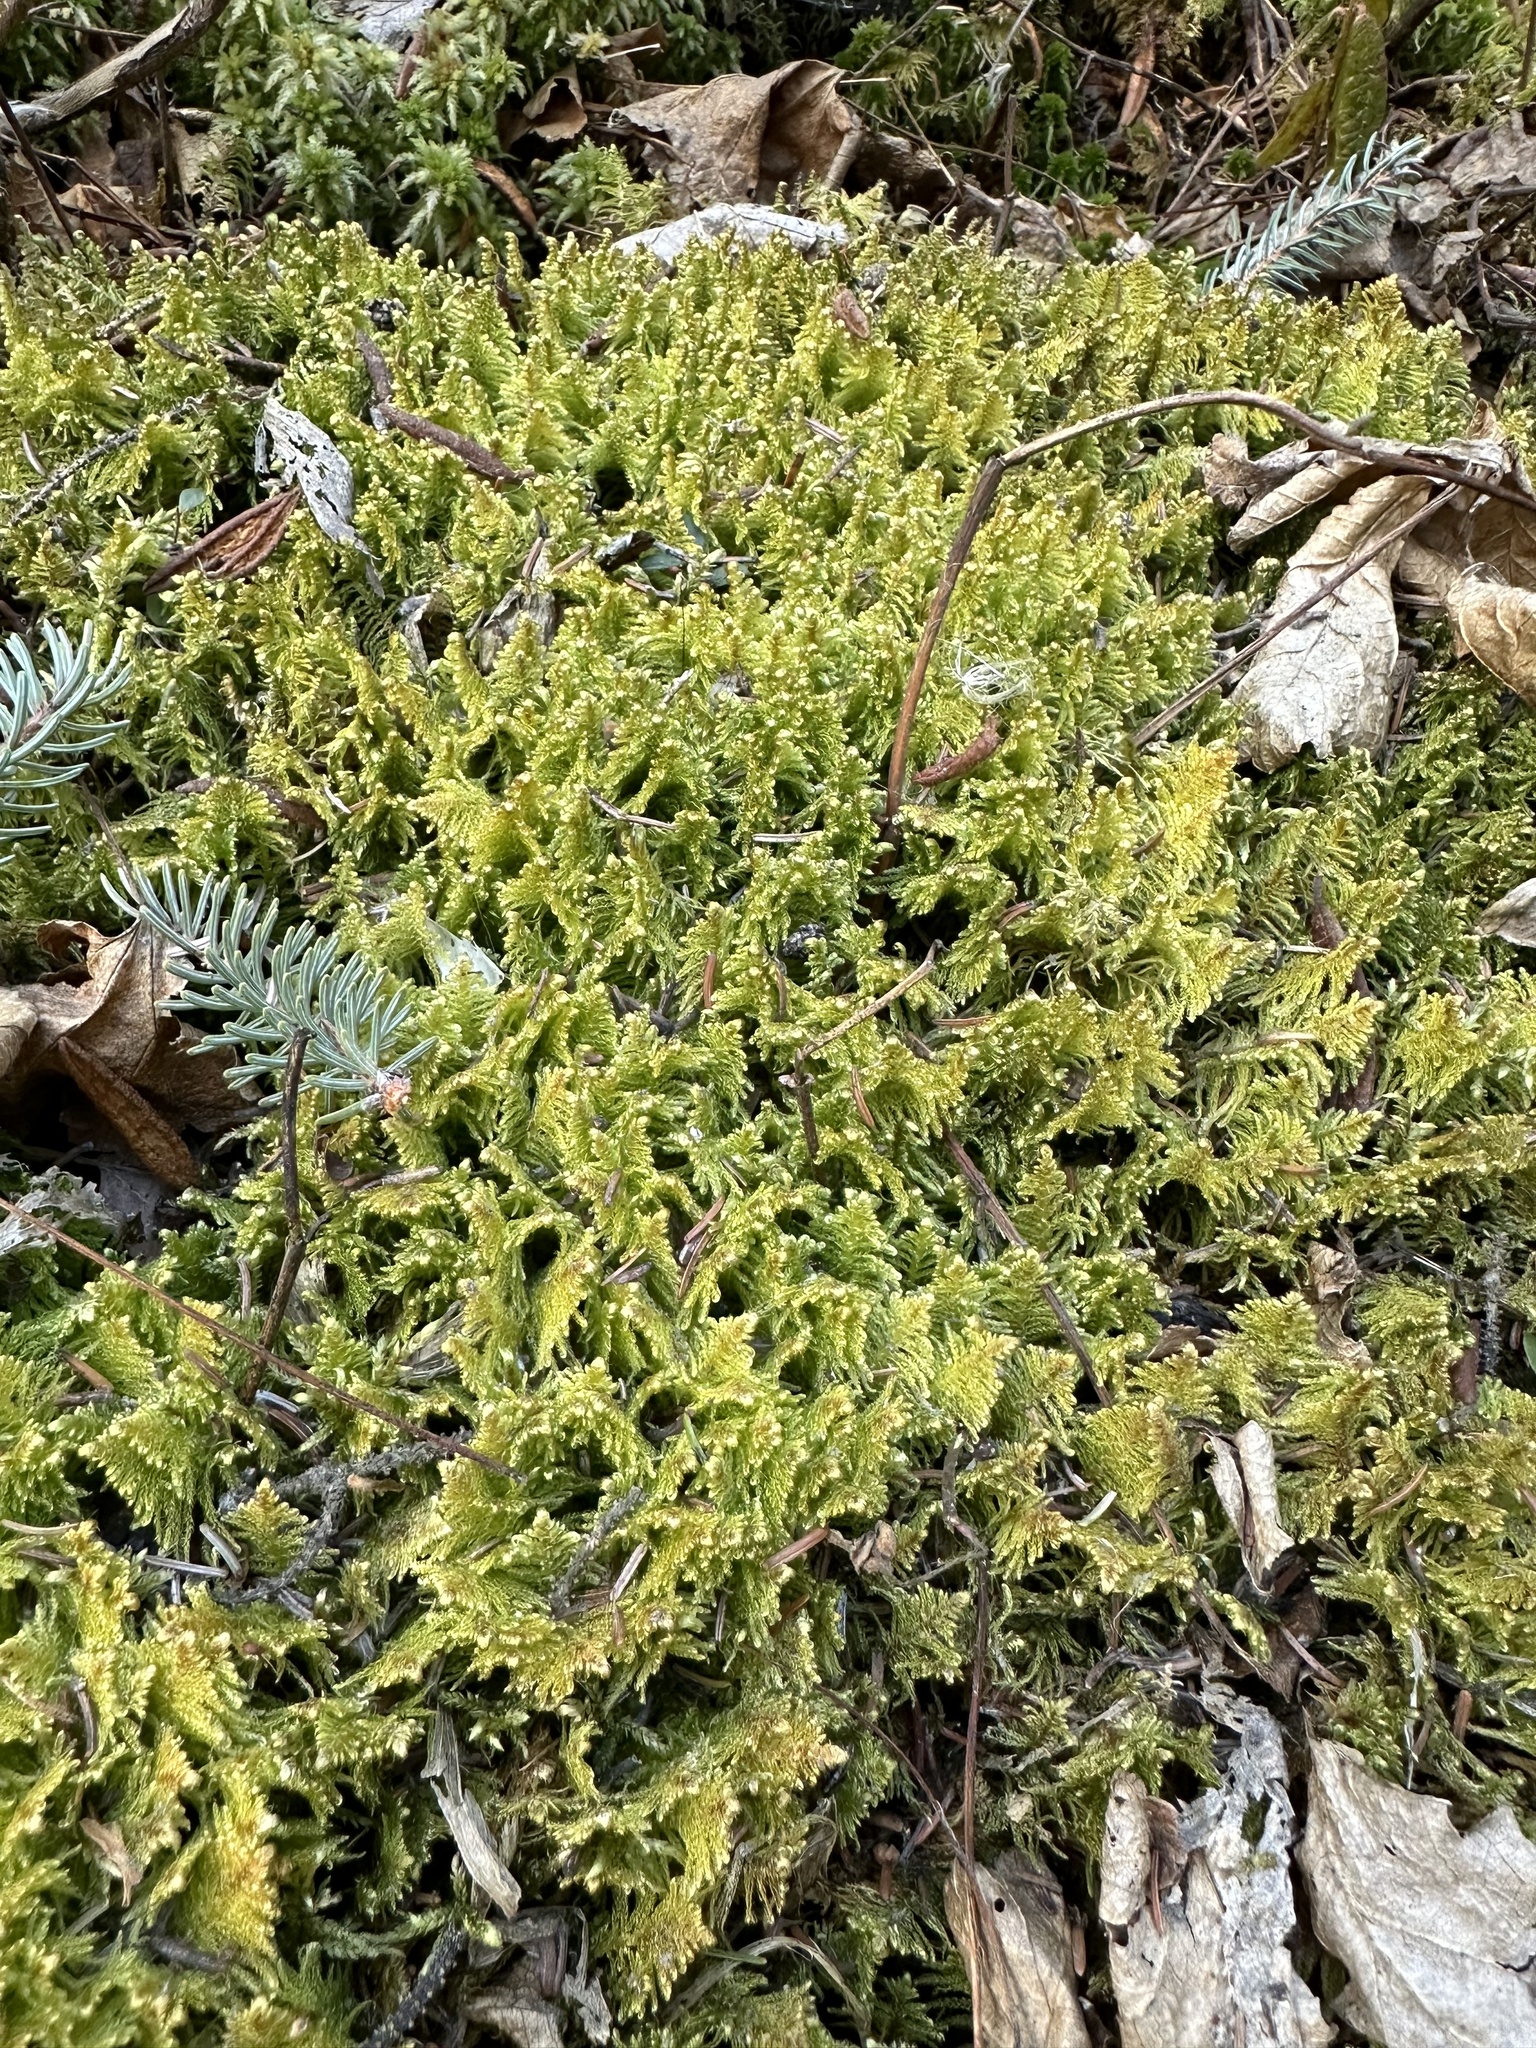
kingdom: Plantae
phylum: Bryophyta
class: Bryopsida
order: Hypnales
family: Pylaisiaceae
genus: Ptilium
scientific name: Ptilium crista-castrensis
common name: Knight's plume moss
